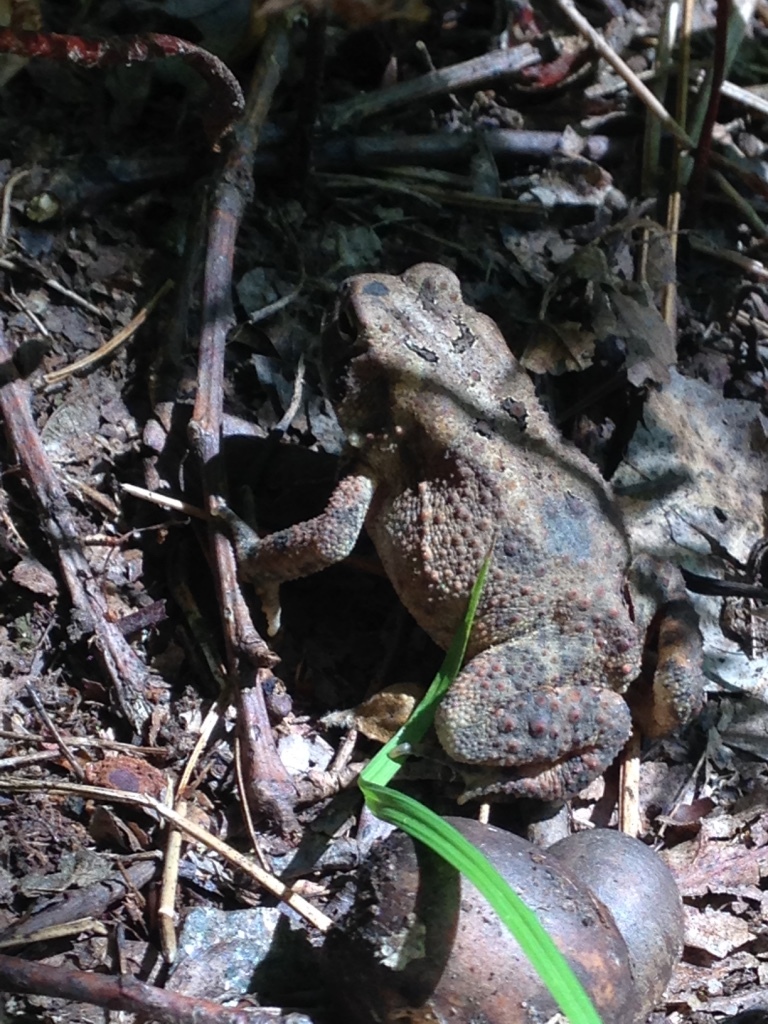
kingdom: Animalia
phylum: Chordata
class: Amphibia
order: Anura
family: Bufonidae
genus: Anaxyrus
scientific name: Anaxyrus americanus
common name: American toad
